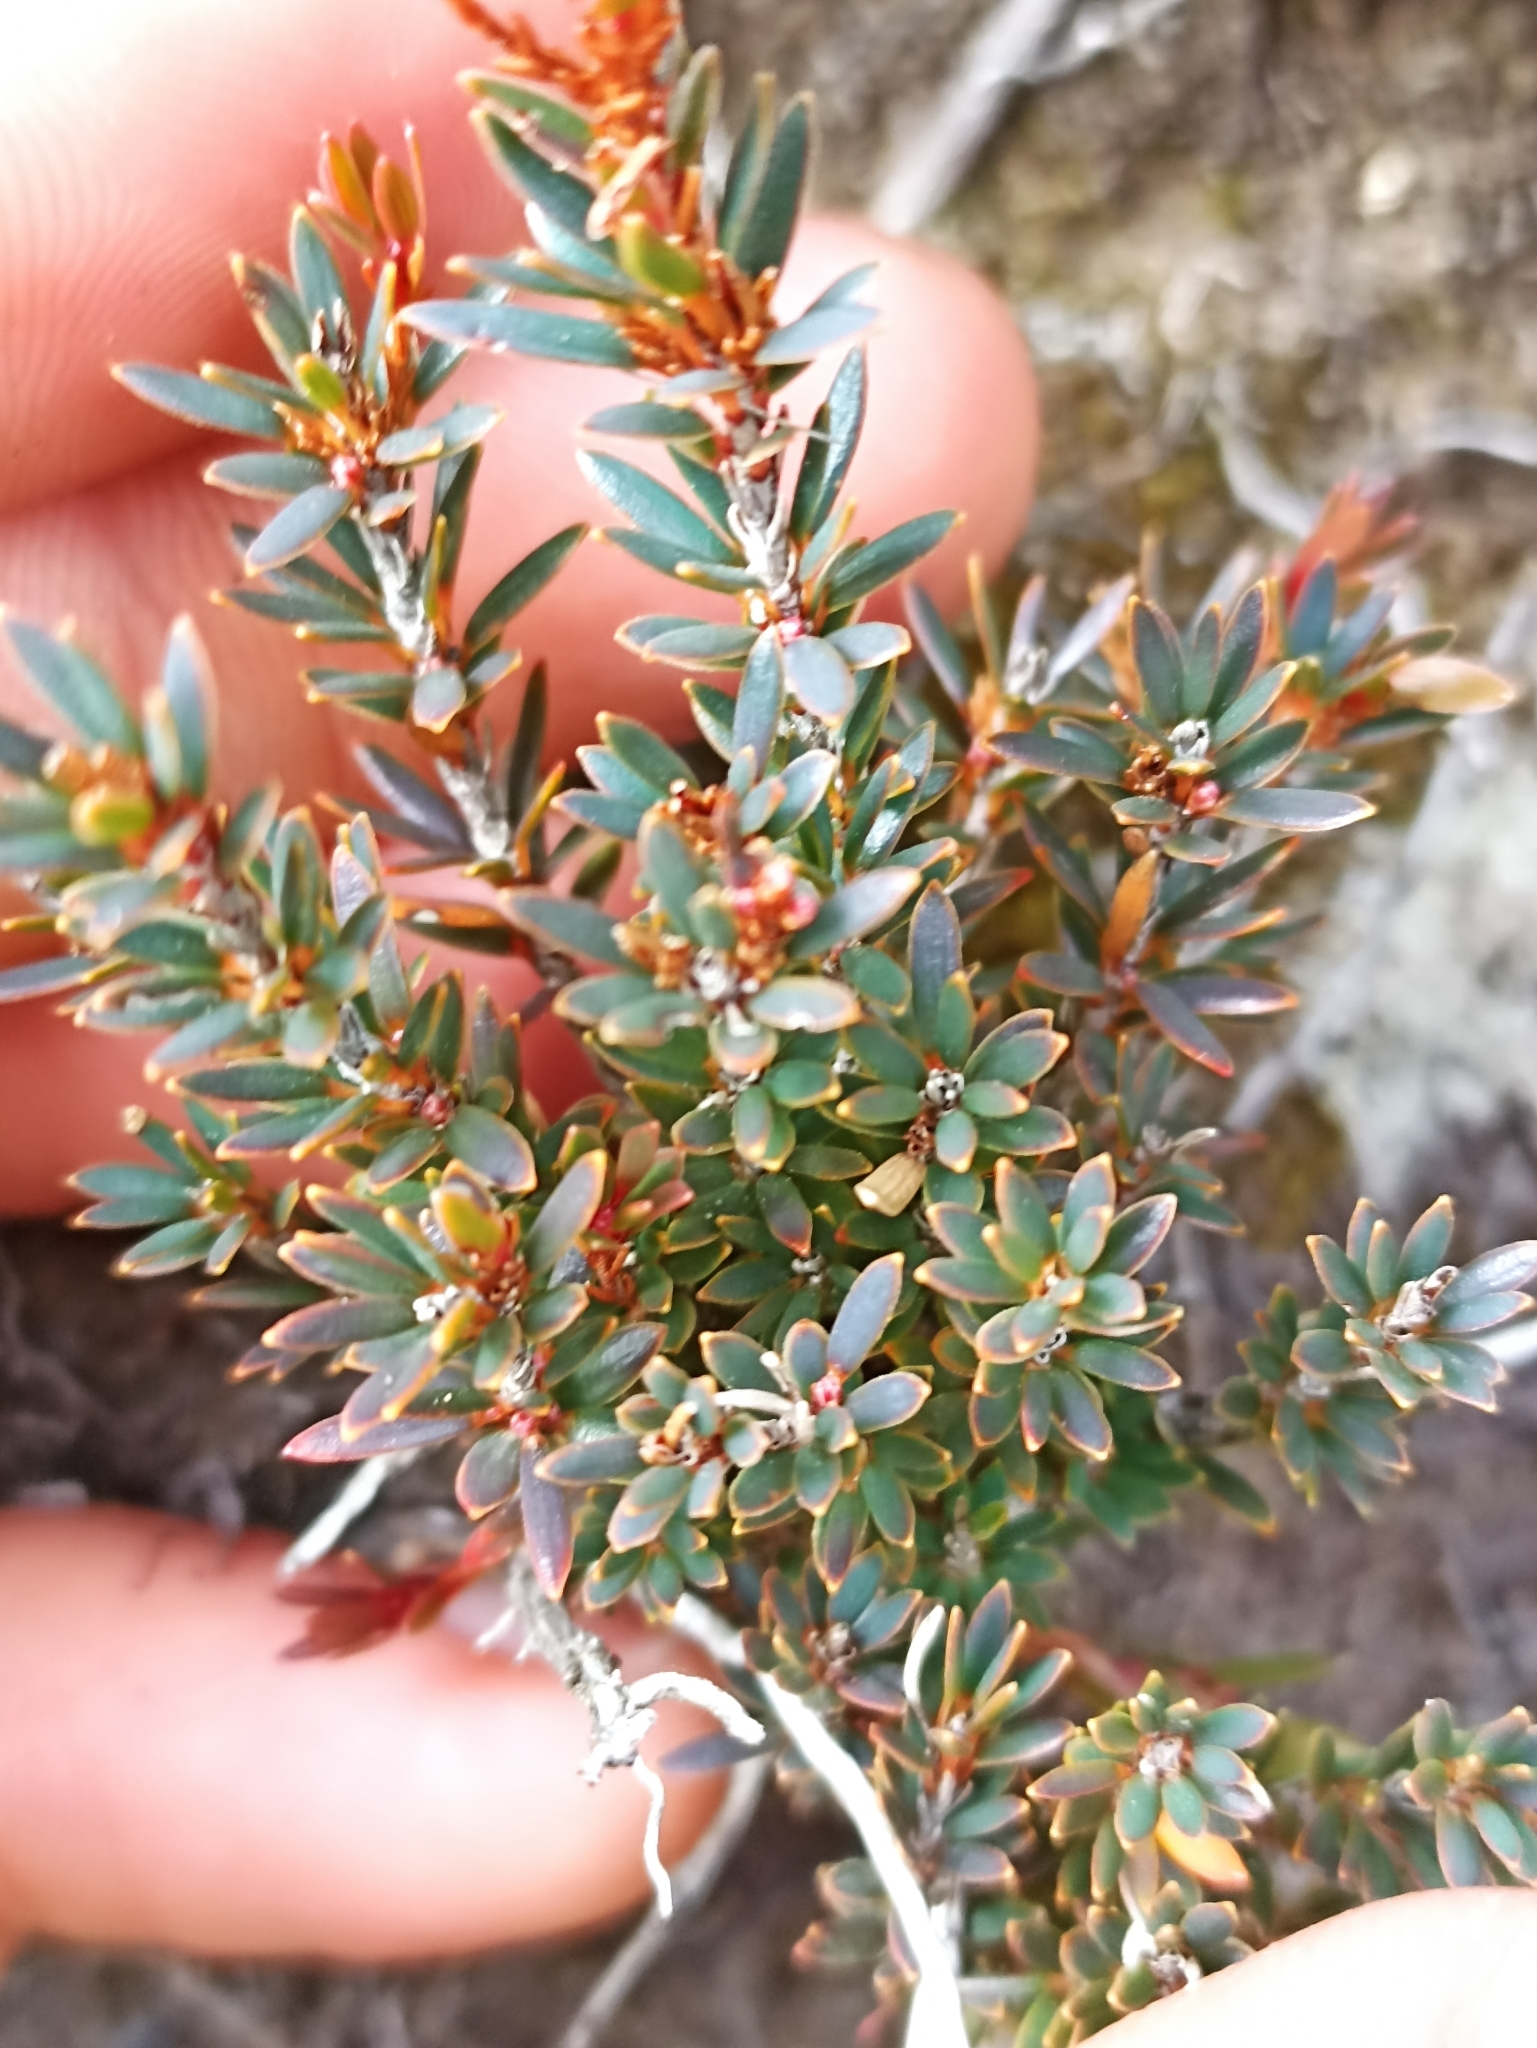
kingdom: Plantae
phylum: Tracheophyta
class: Magnoliopsida
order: Ericales
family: Ericaceae
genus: Pentachondra
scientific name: Pentachondra pumila
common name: Carpet-heath
